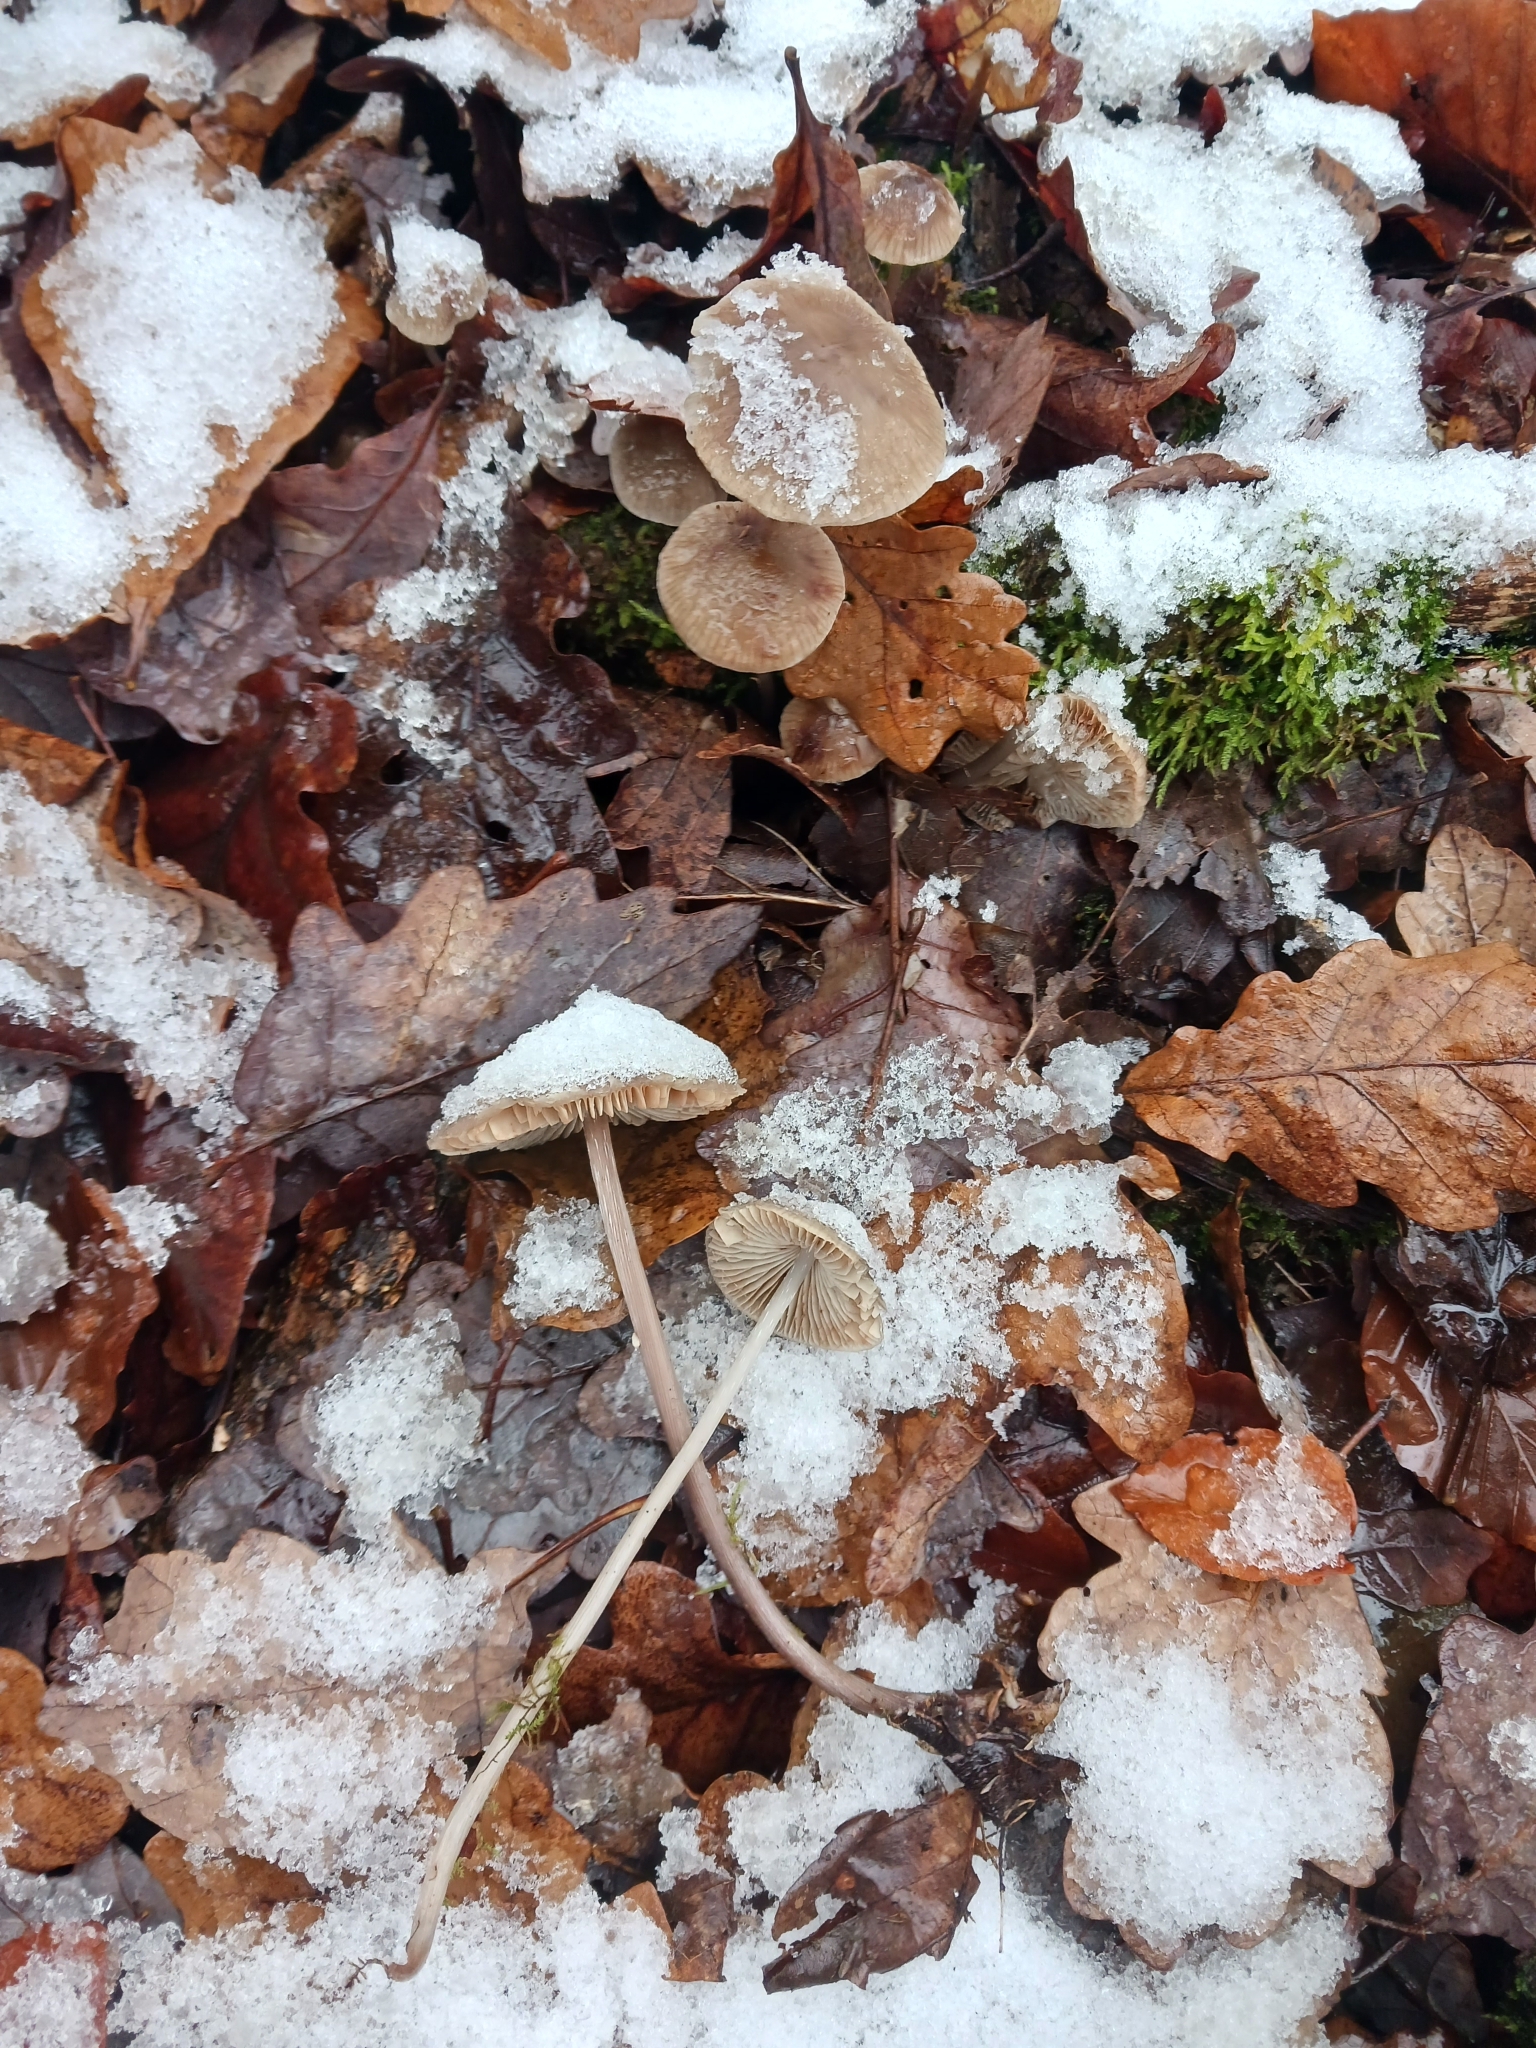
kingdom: Fungi
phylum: Basidiomycota
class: Agaricomycetes
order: Agaricales
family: Mycenaceae
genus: Mycena
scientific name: Mycena polygramma
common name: Grooved bonnet
